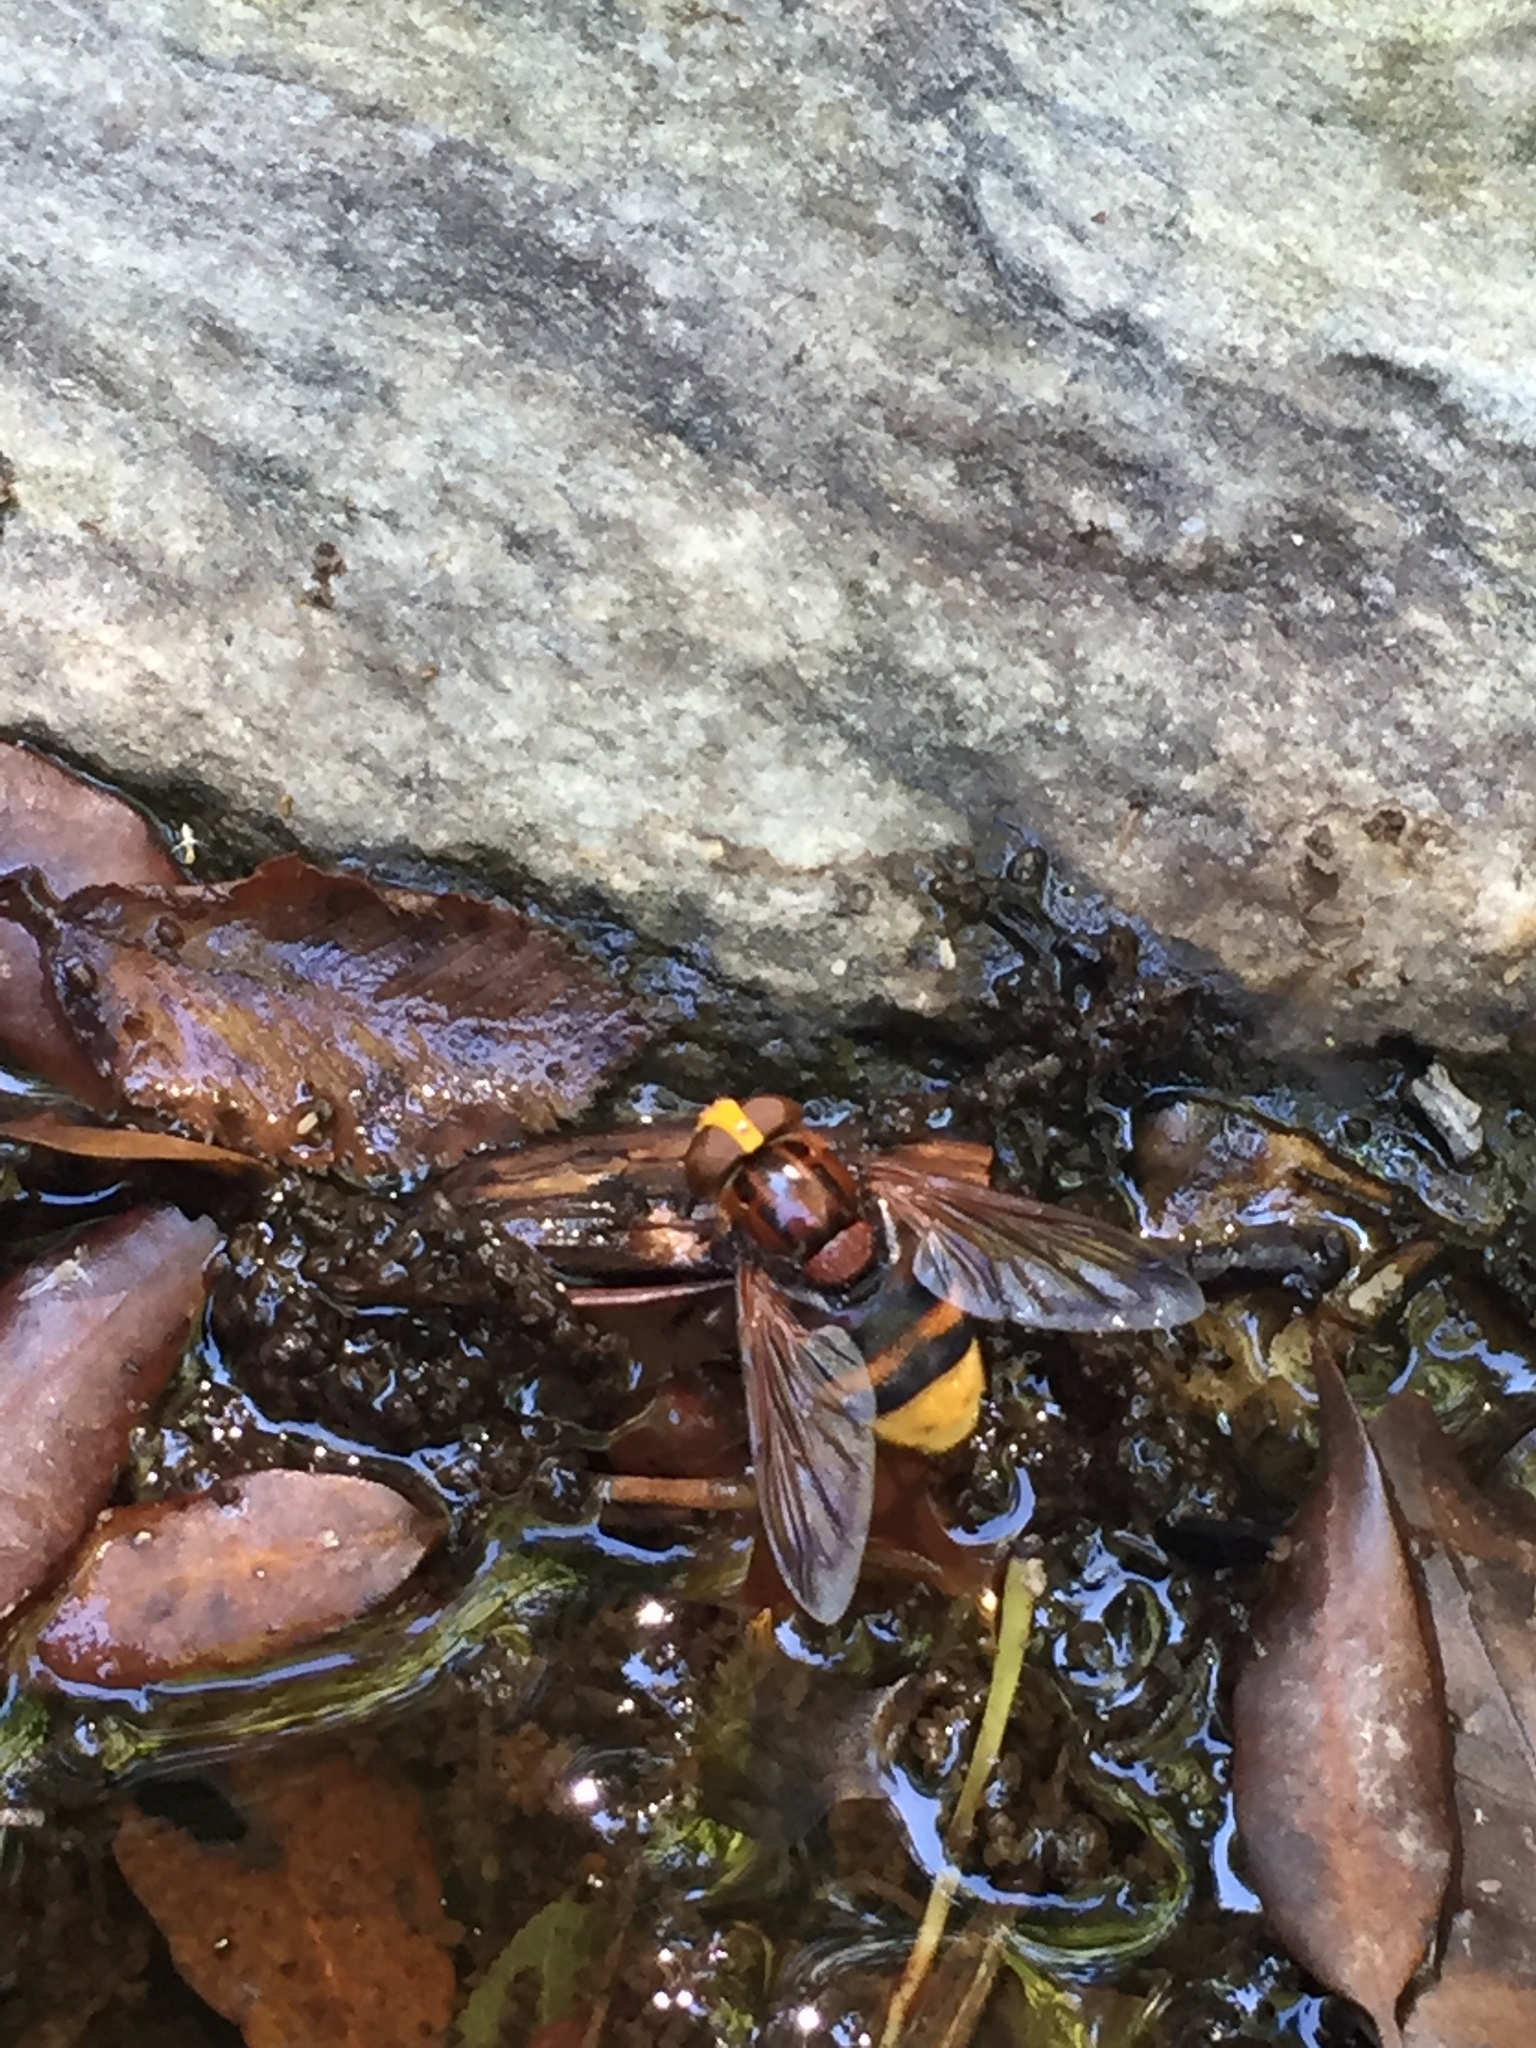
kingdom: Animalia
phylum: Arthropoda
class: Insecta
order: Diptera
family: Syrphidae
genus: Volucella
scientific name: Volucella zonaria
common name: Hornet hoverfly
